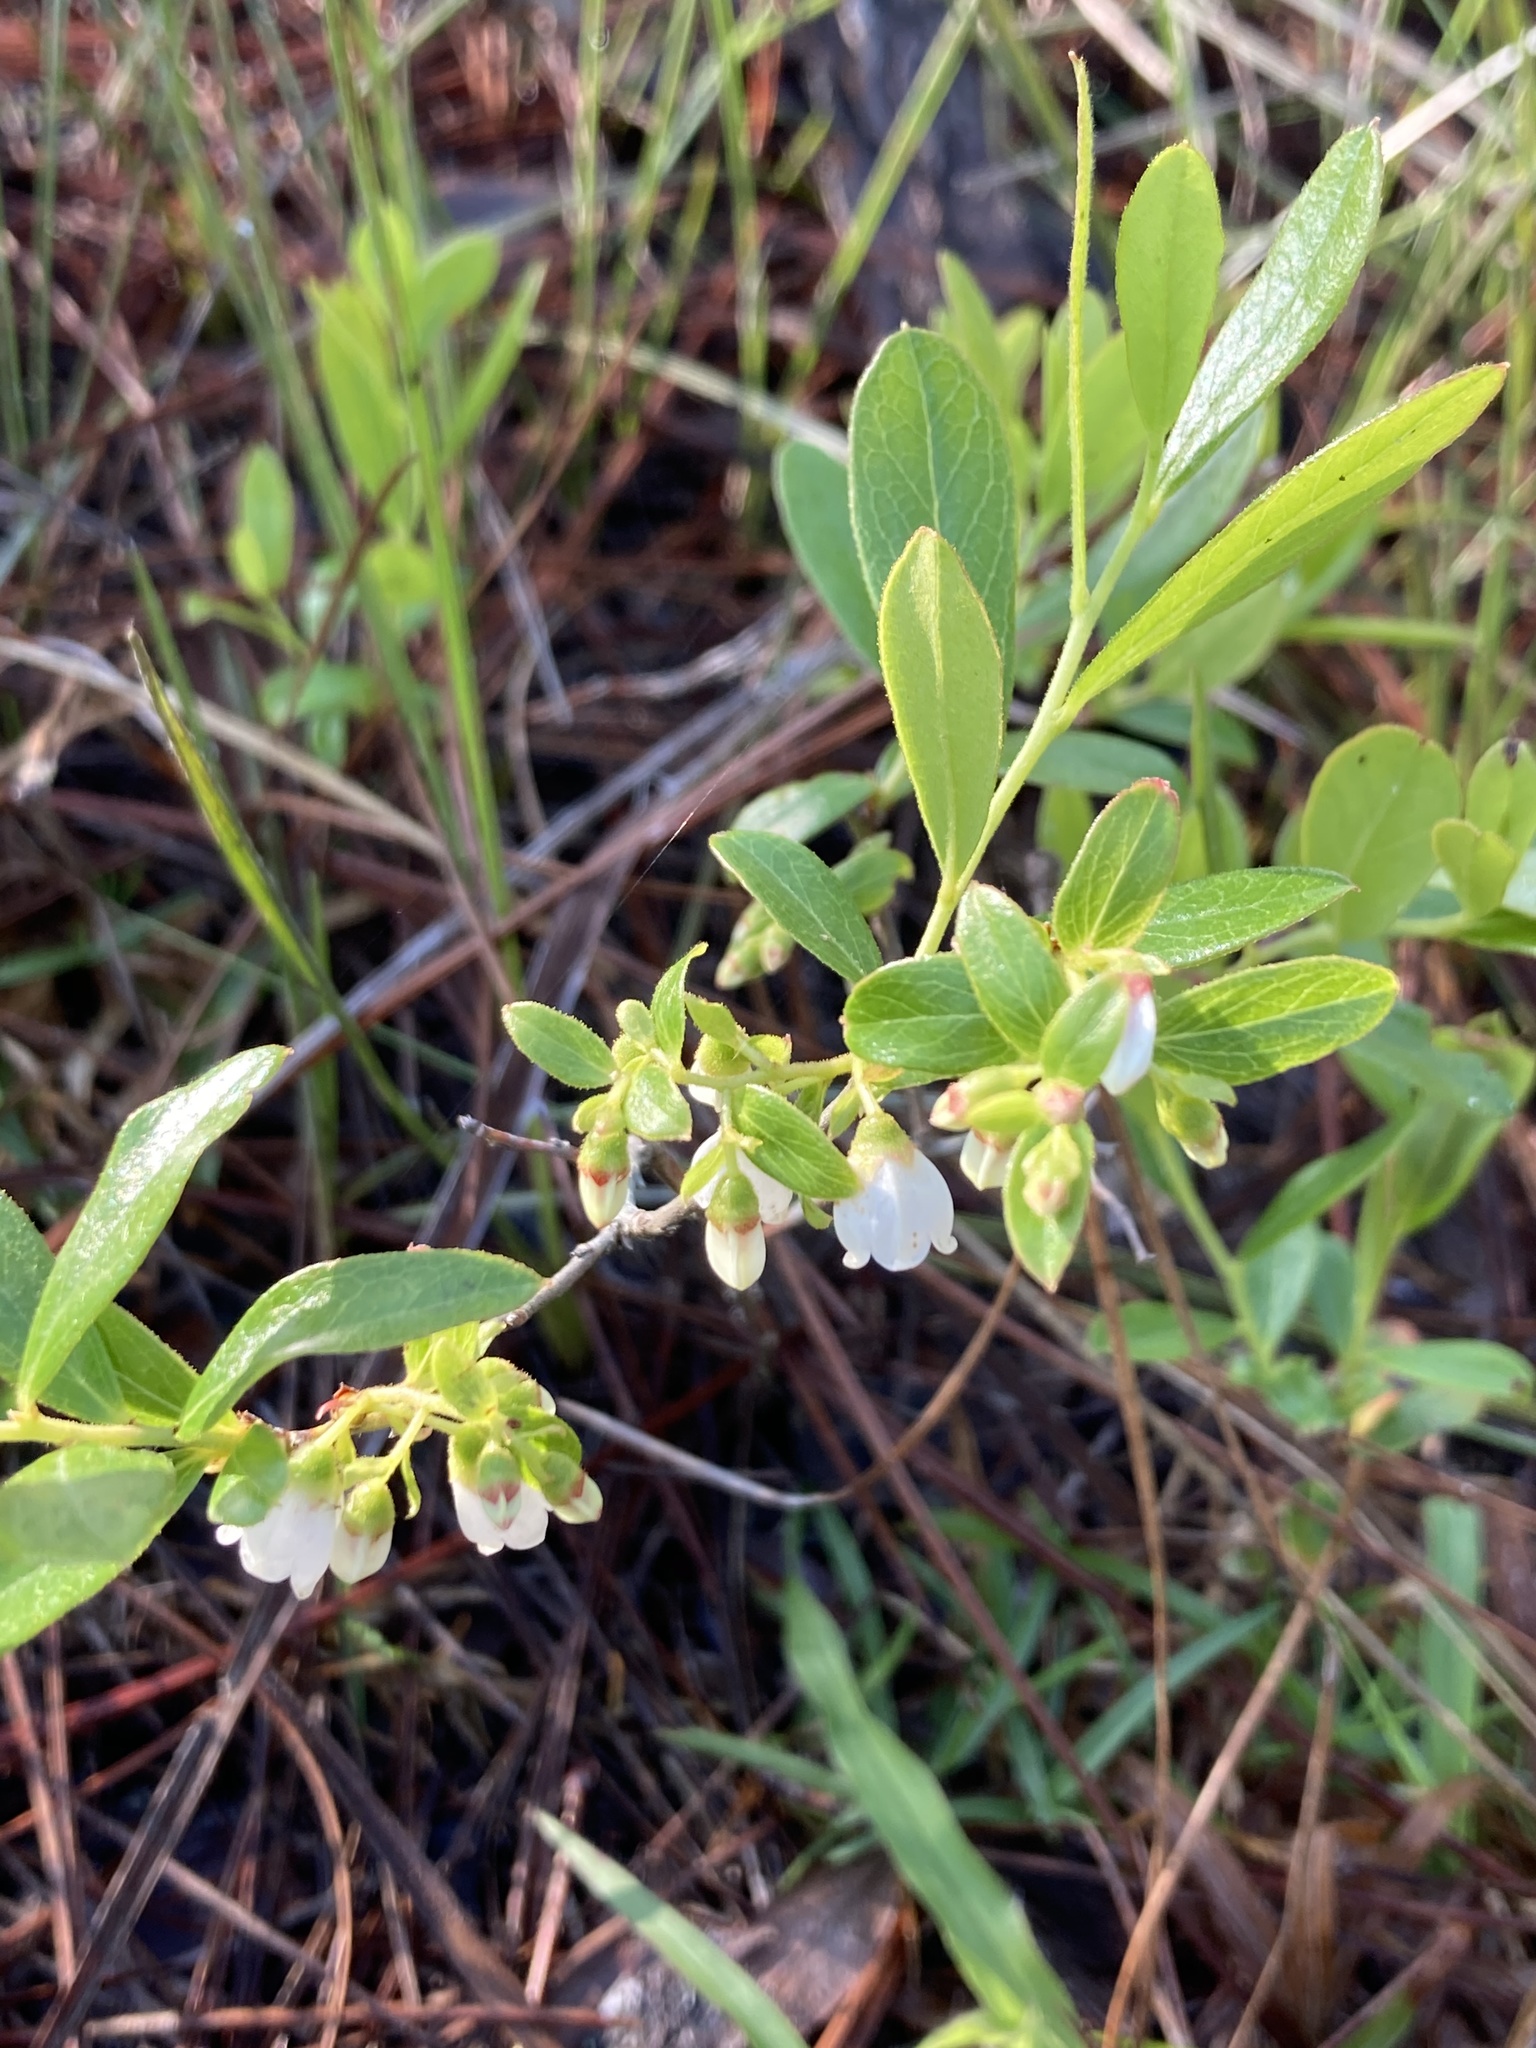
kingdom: Plantae
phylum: Tracheophyta
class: Magnoliopsida
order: Ericales
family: Ericaceae
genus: Gaylussacia
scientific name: Gaylussacia dumosa
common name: Dwarf huckleberry
